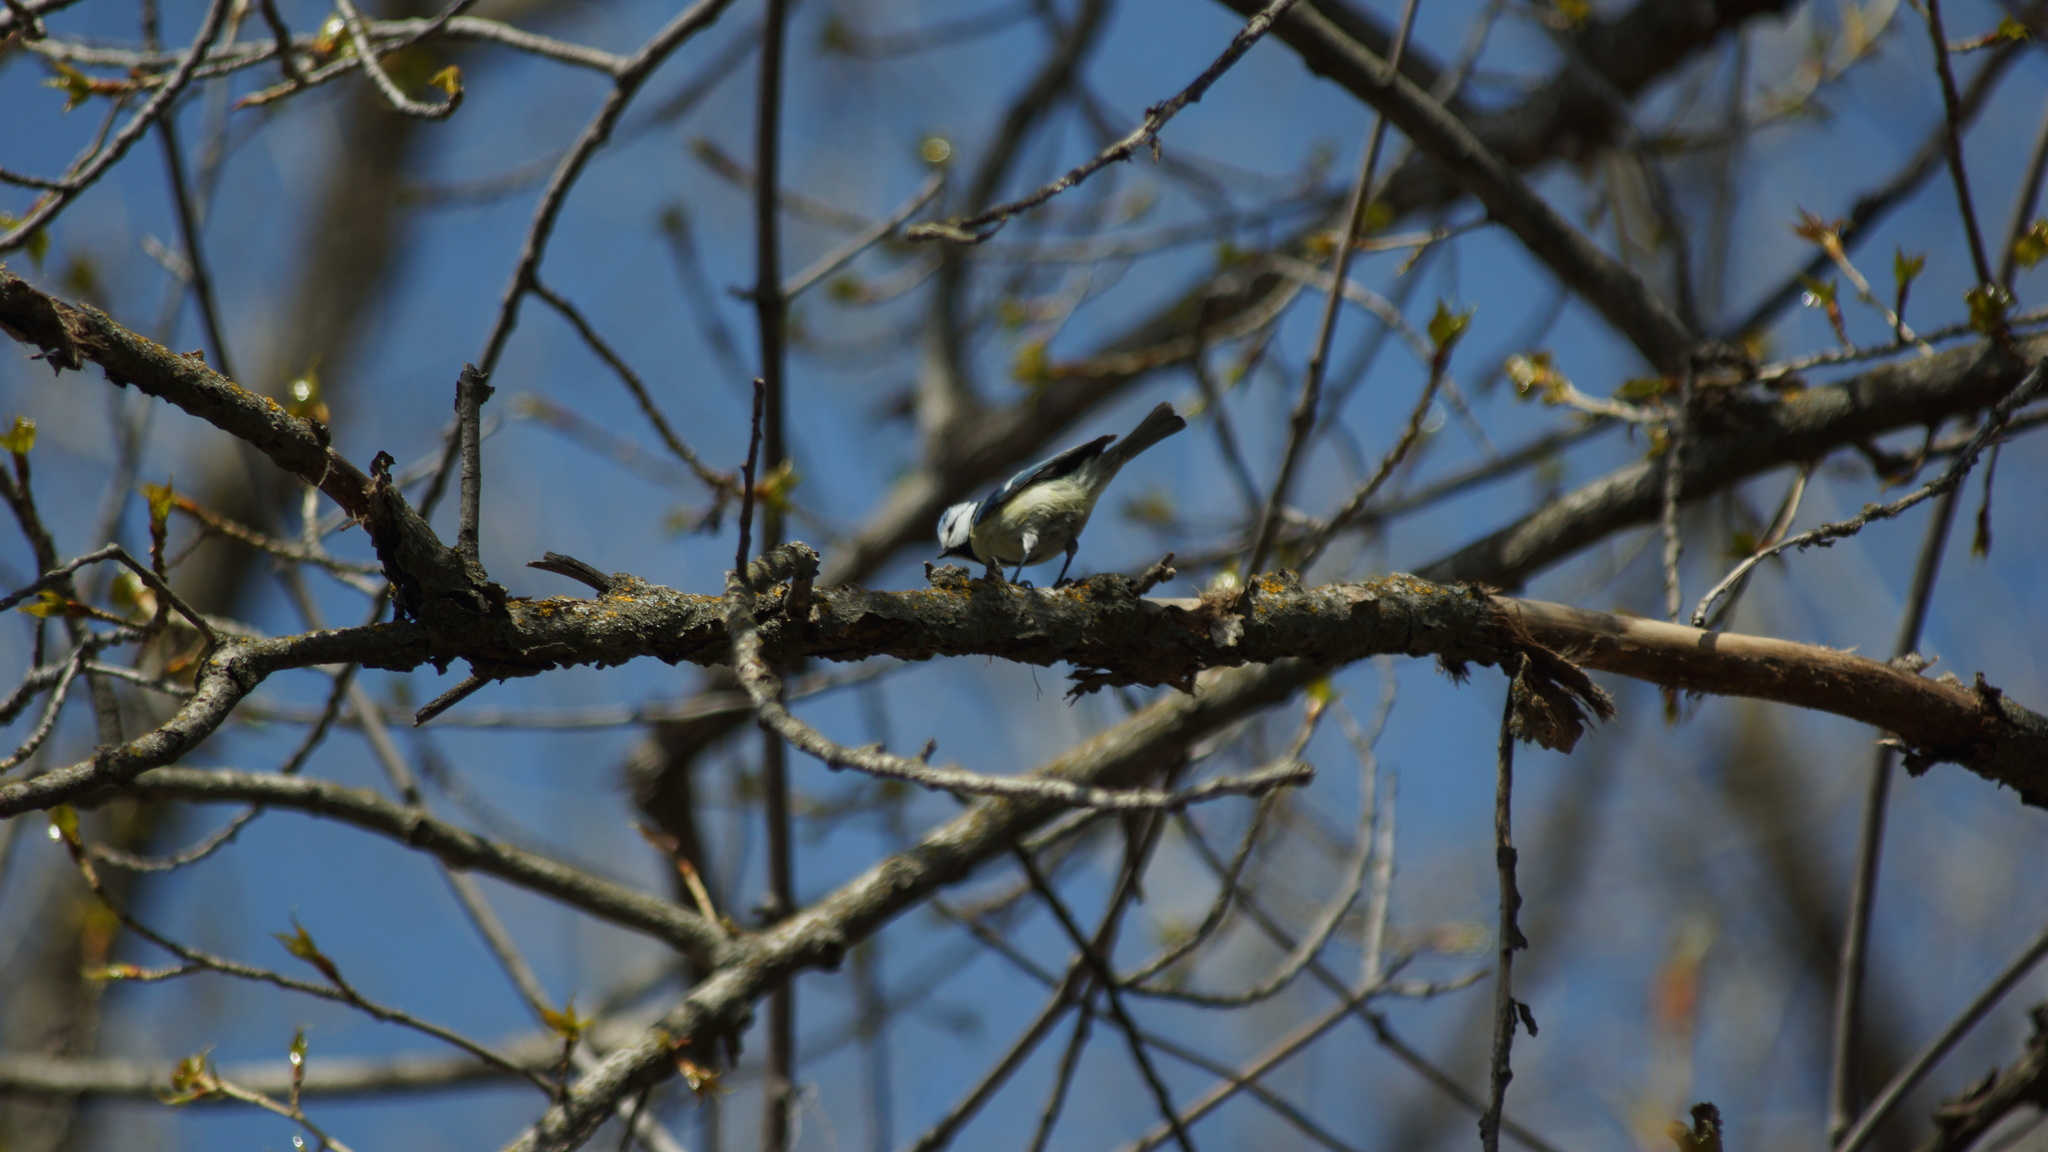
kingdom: Animalia
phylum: Chordata
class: Aves
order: Passeriformes
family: Paridae
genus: Cyanistes
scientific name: Cyanistes caeruleus
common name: Eurasian blue tit
